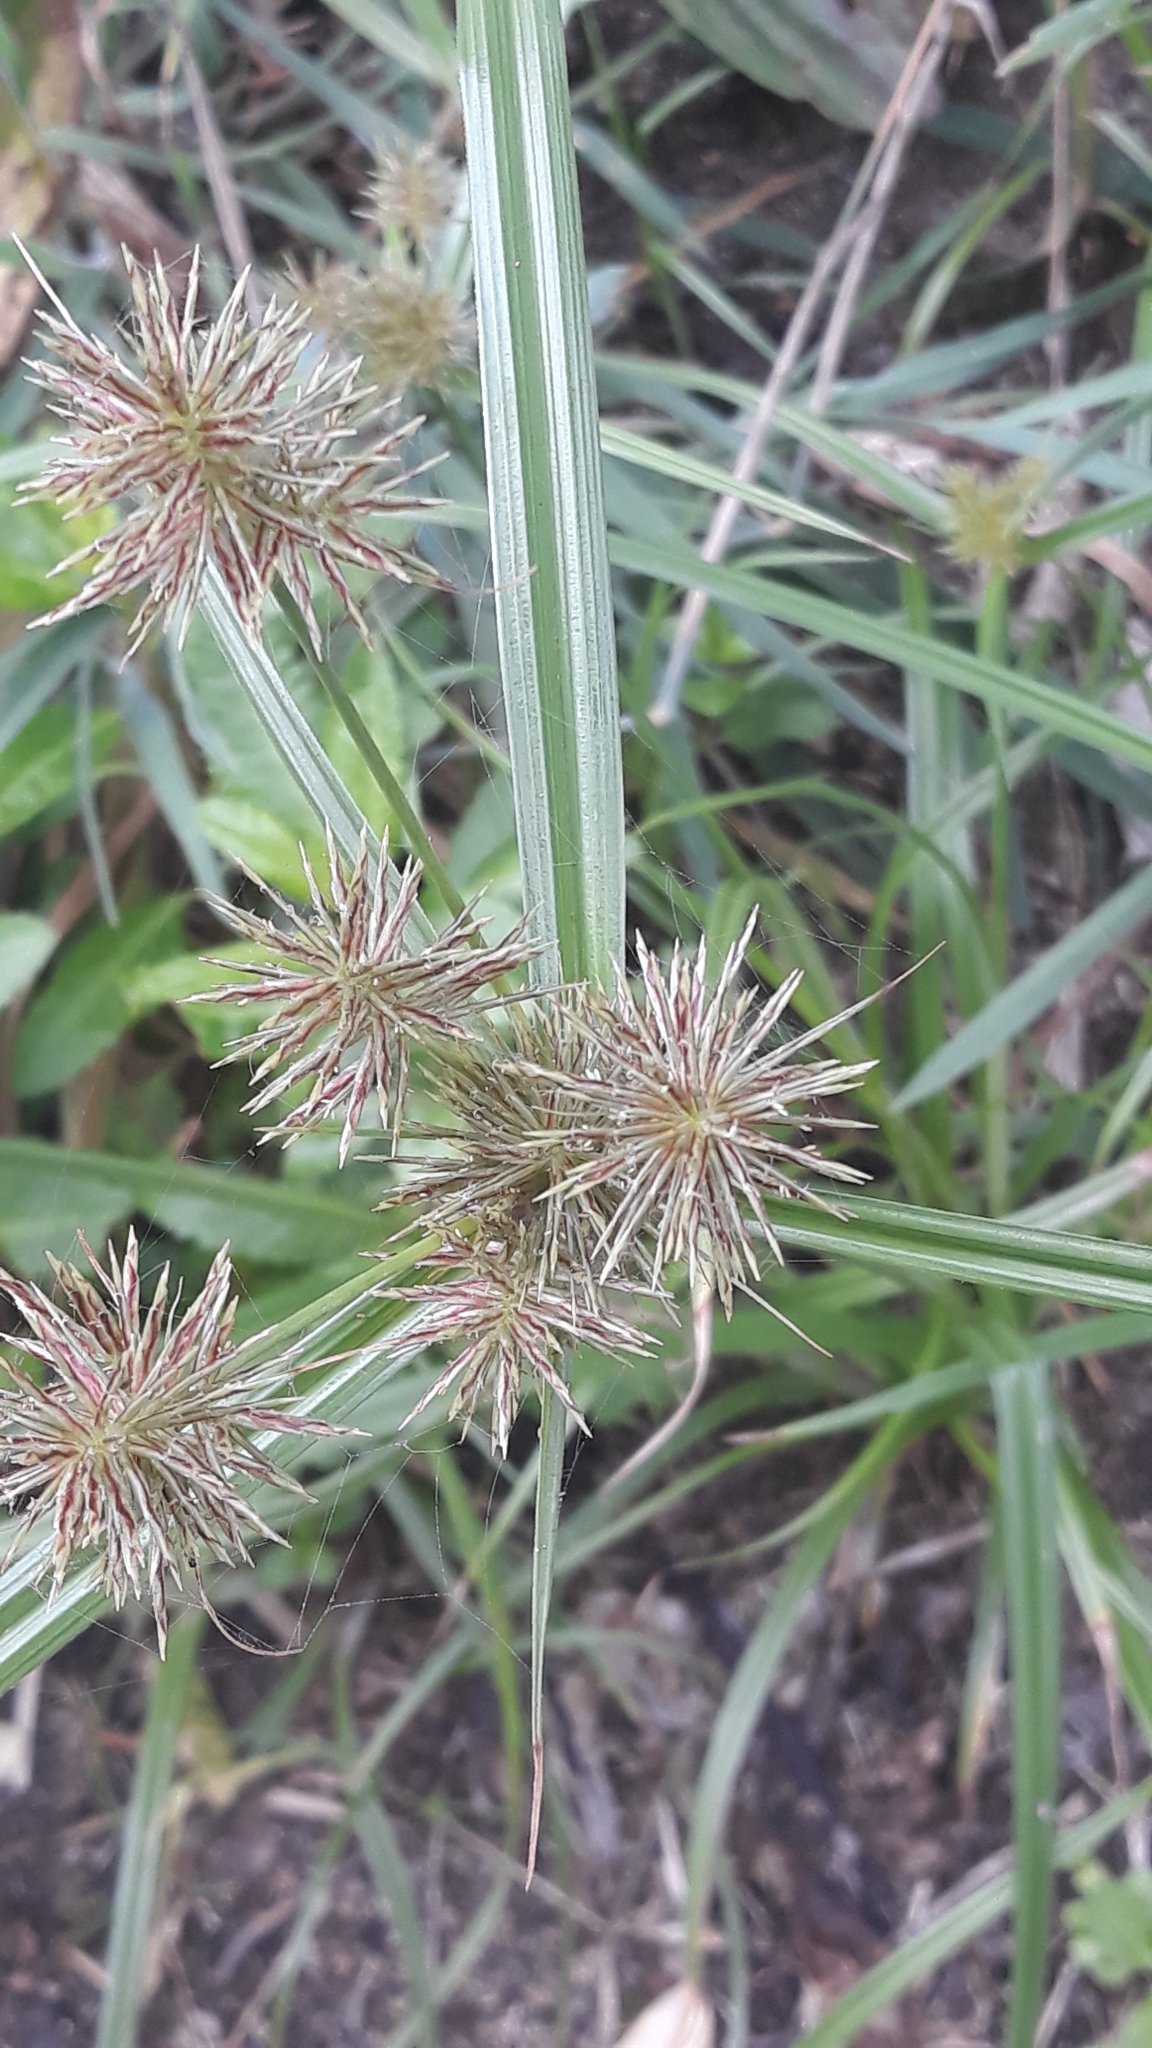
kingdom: Plantae
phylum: Tracheophyta
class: Liliopsida
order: Poales
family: Cyperaceae
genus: Cyperus
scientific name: Cyperus congestus
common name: Dense flat sedge
